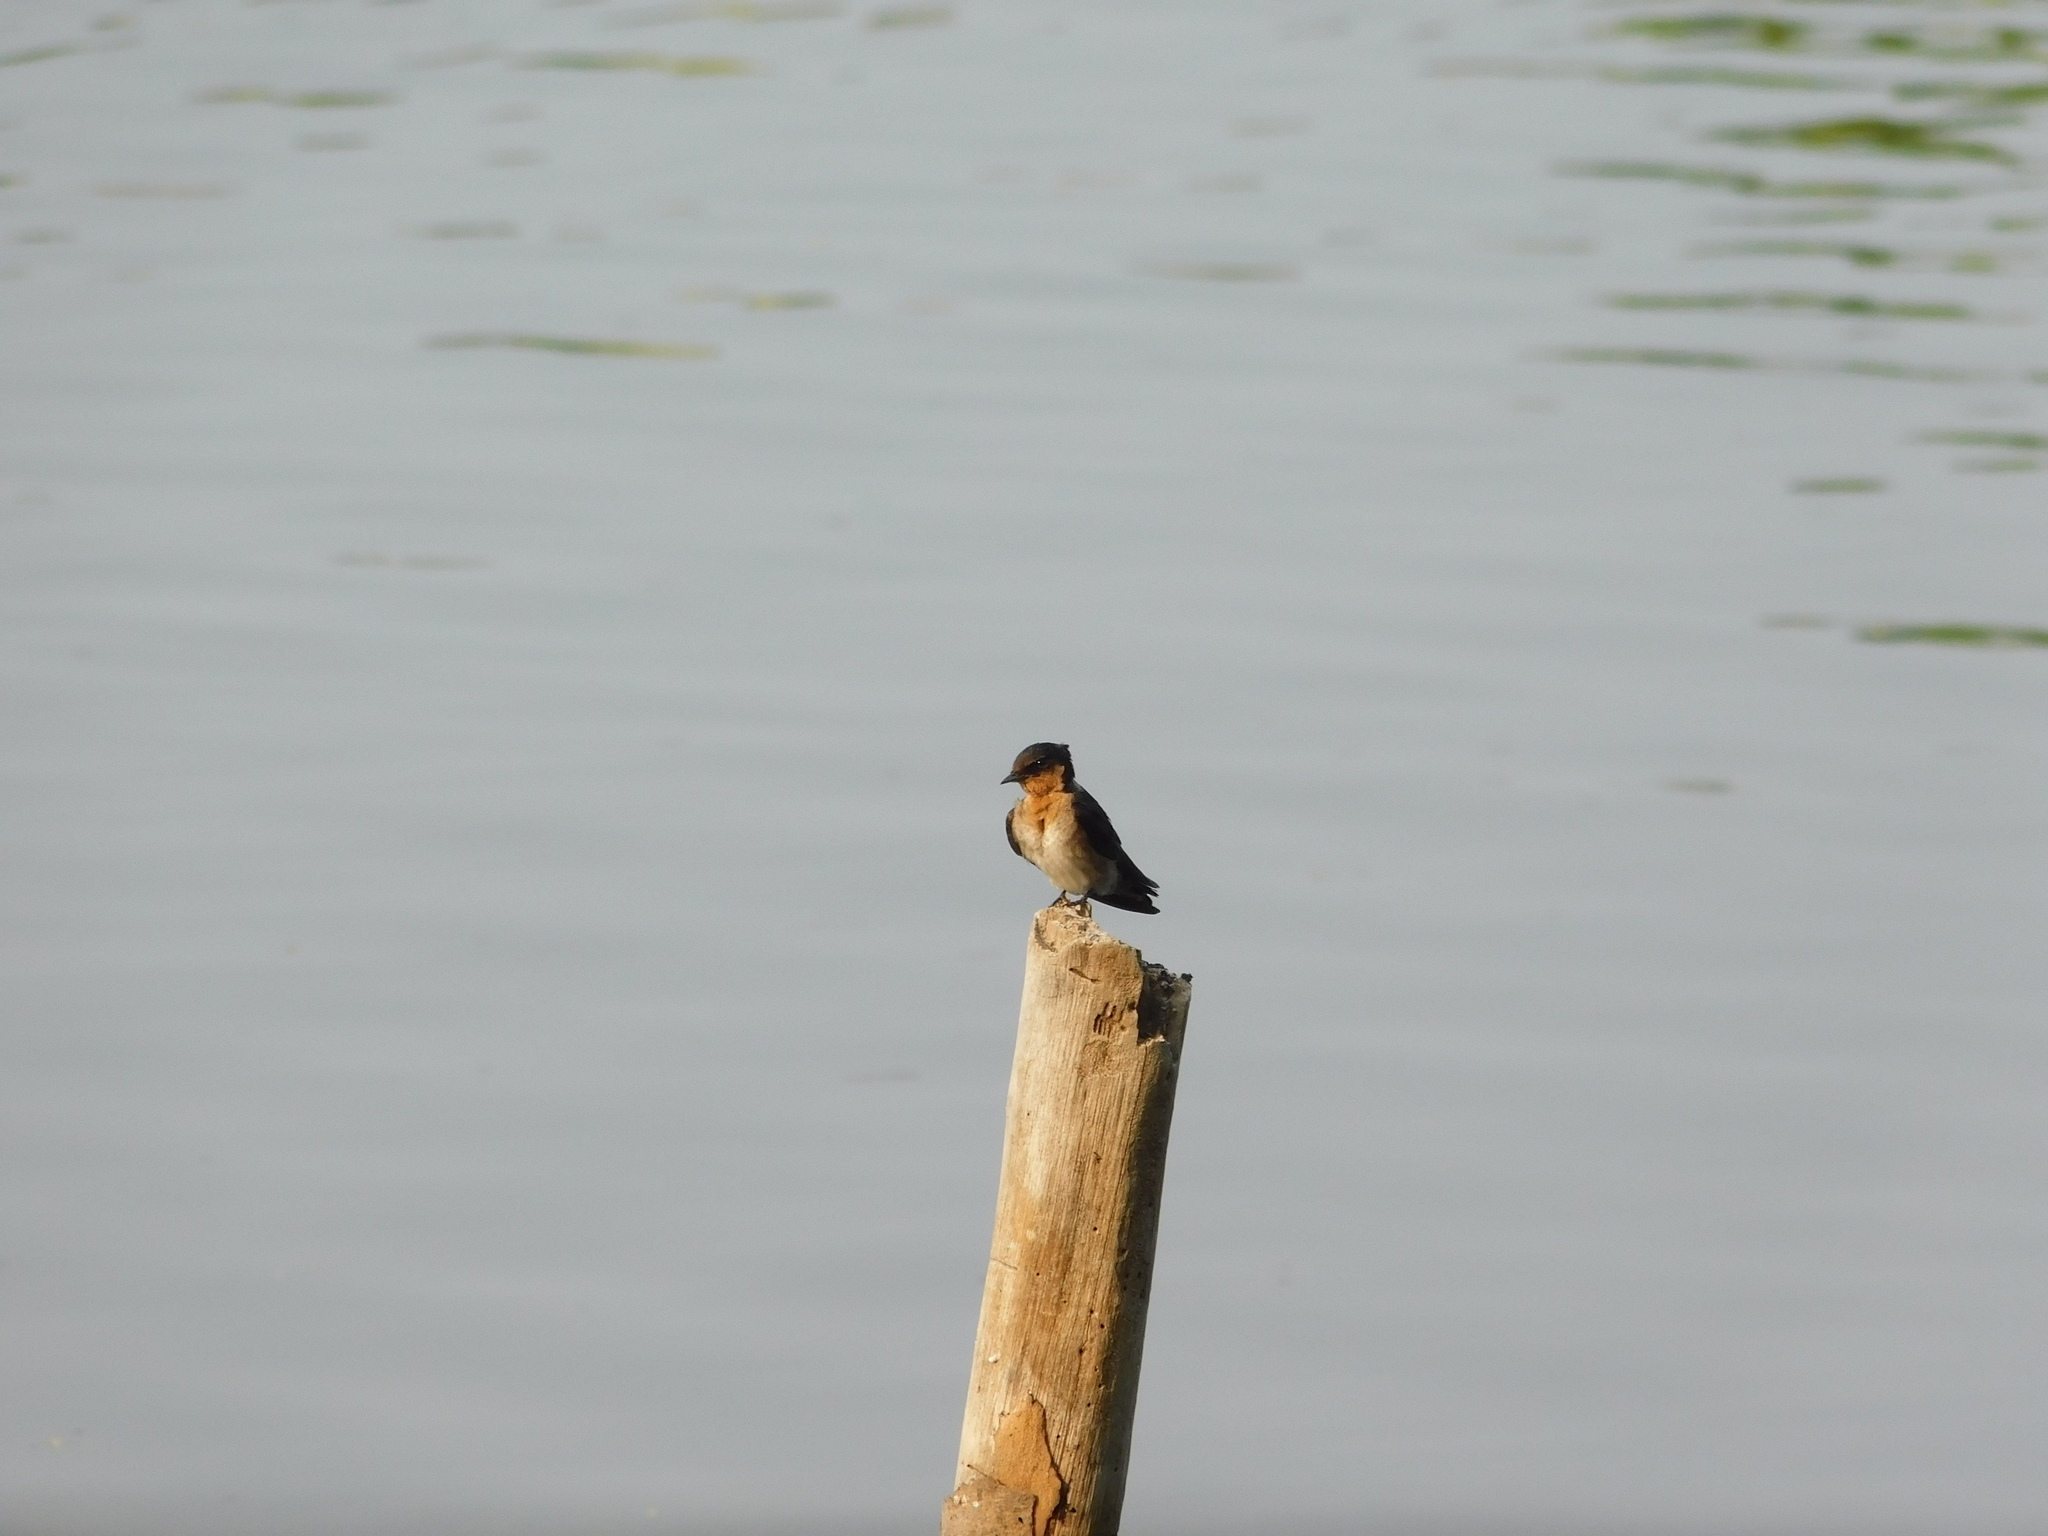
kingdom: Animalia
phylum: Chordata
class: Aves
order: Passeriformes
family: Hirundinidae
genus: Hirundo
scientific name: Hirundo tahitica
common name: Pacific swallow
